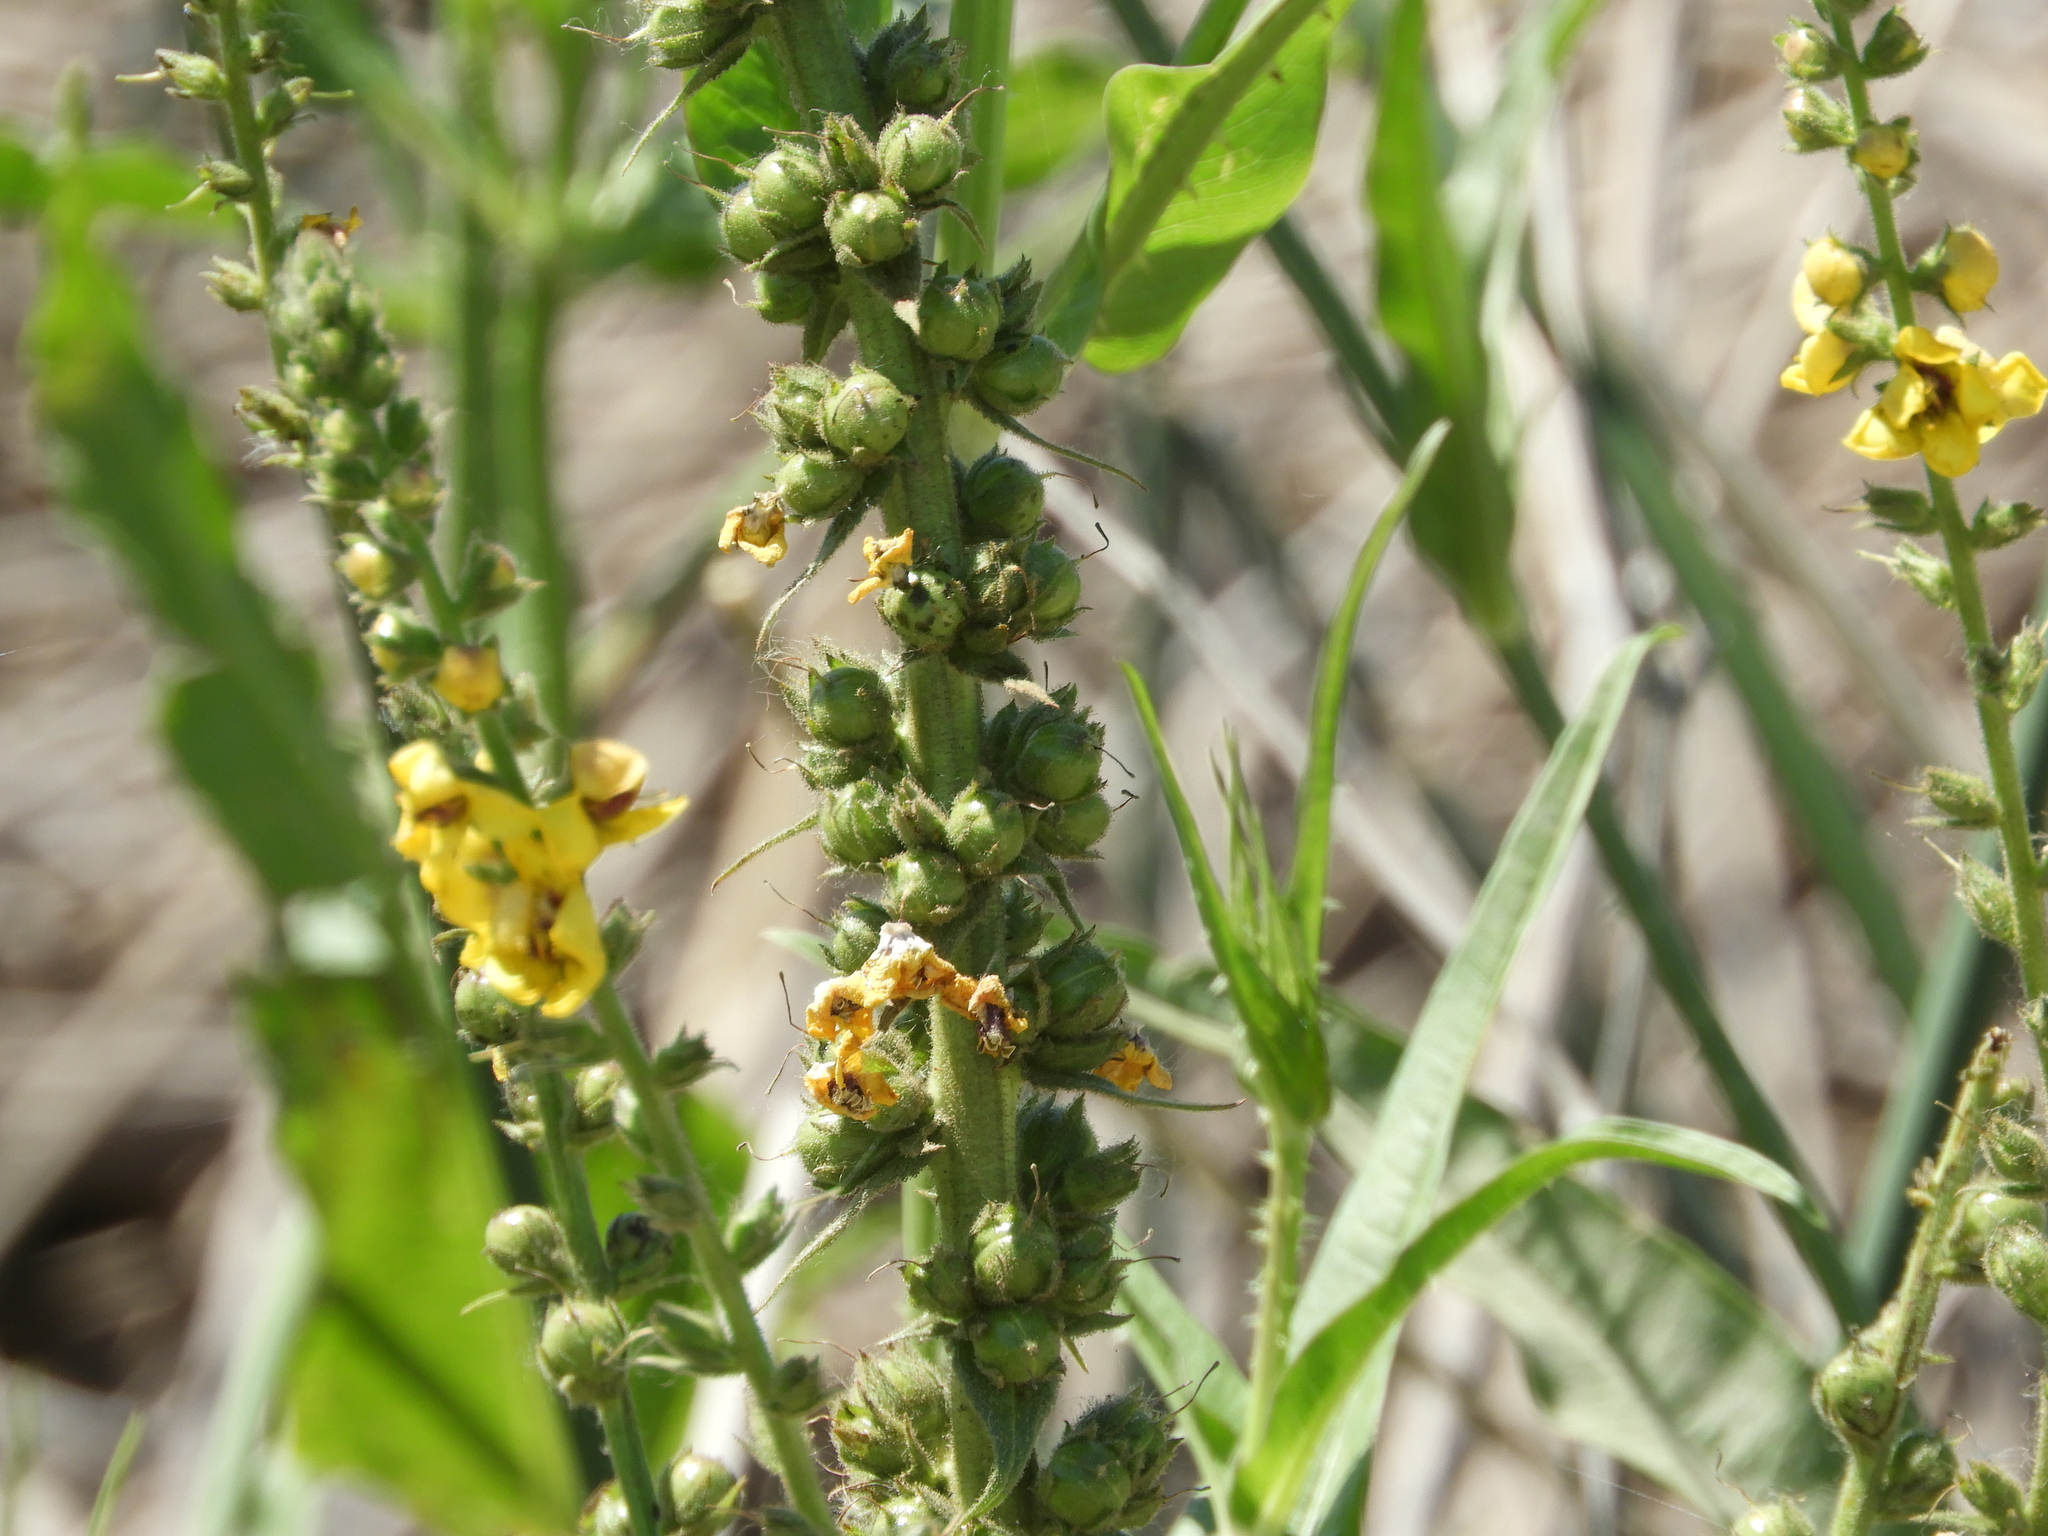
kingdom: Plantae
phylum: Tracheophyta
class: Magnoliopsida
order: Lamiales
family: Scrophulariaceae
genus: Verbascum
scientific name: Verbascum virgatum
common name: Twiggy mullein
